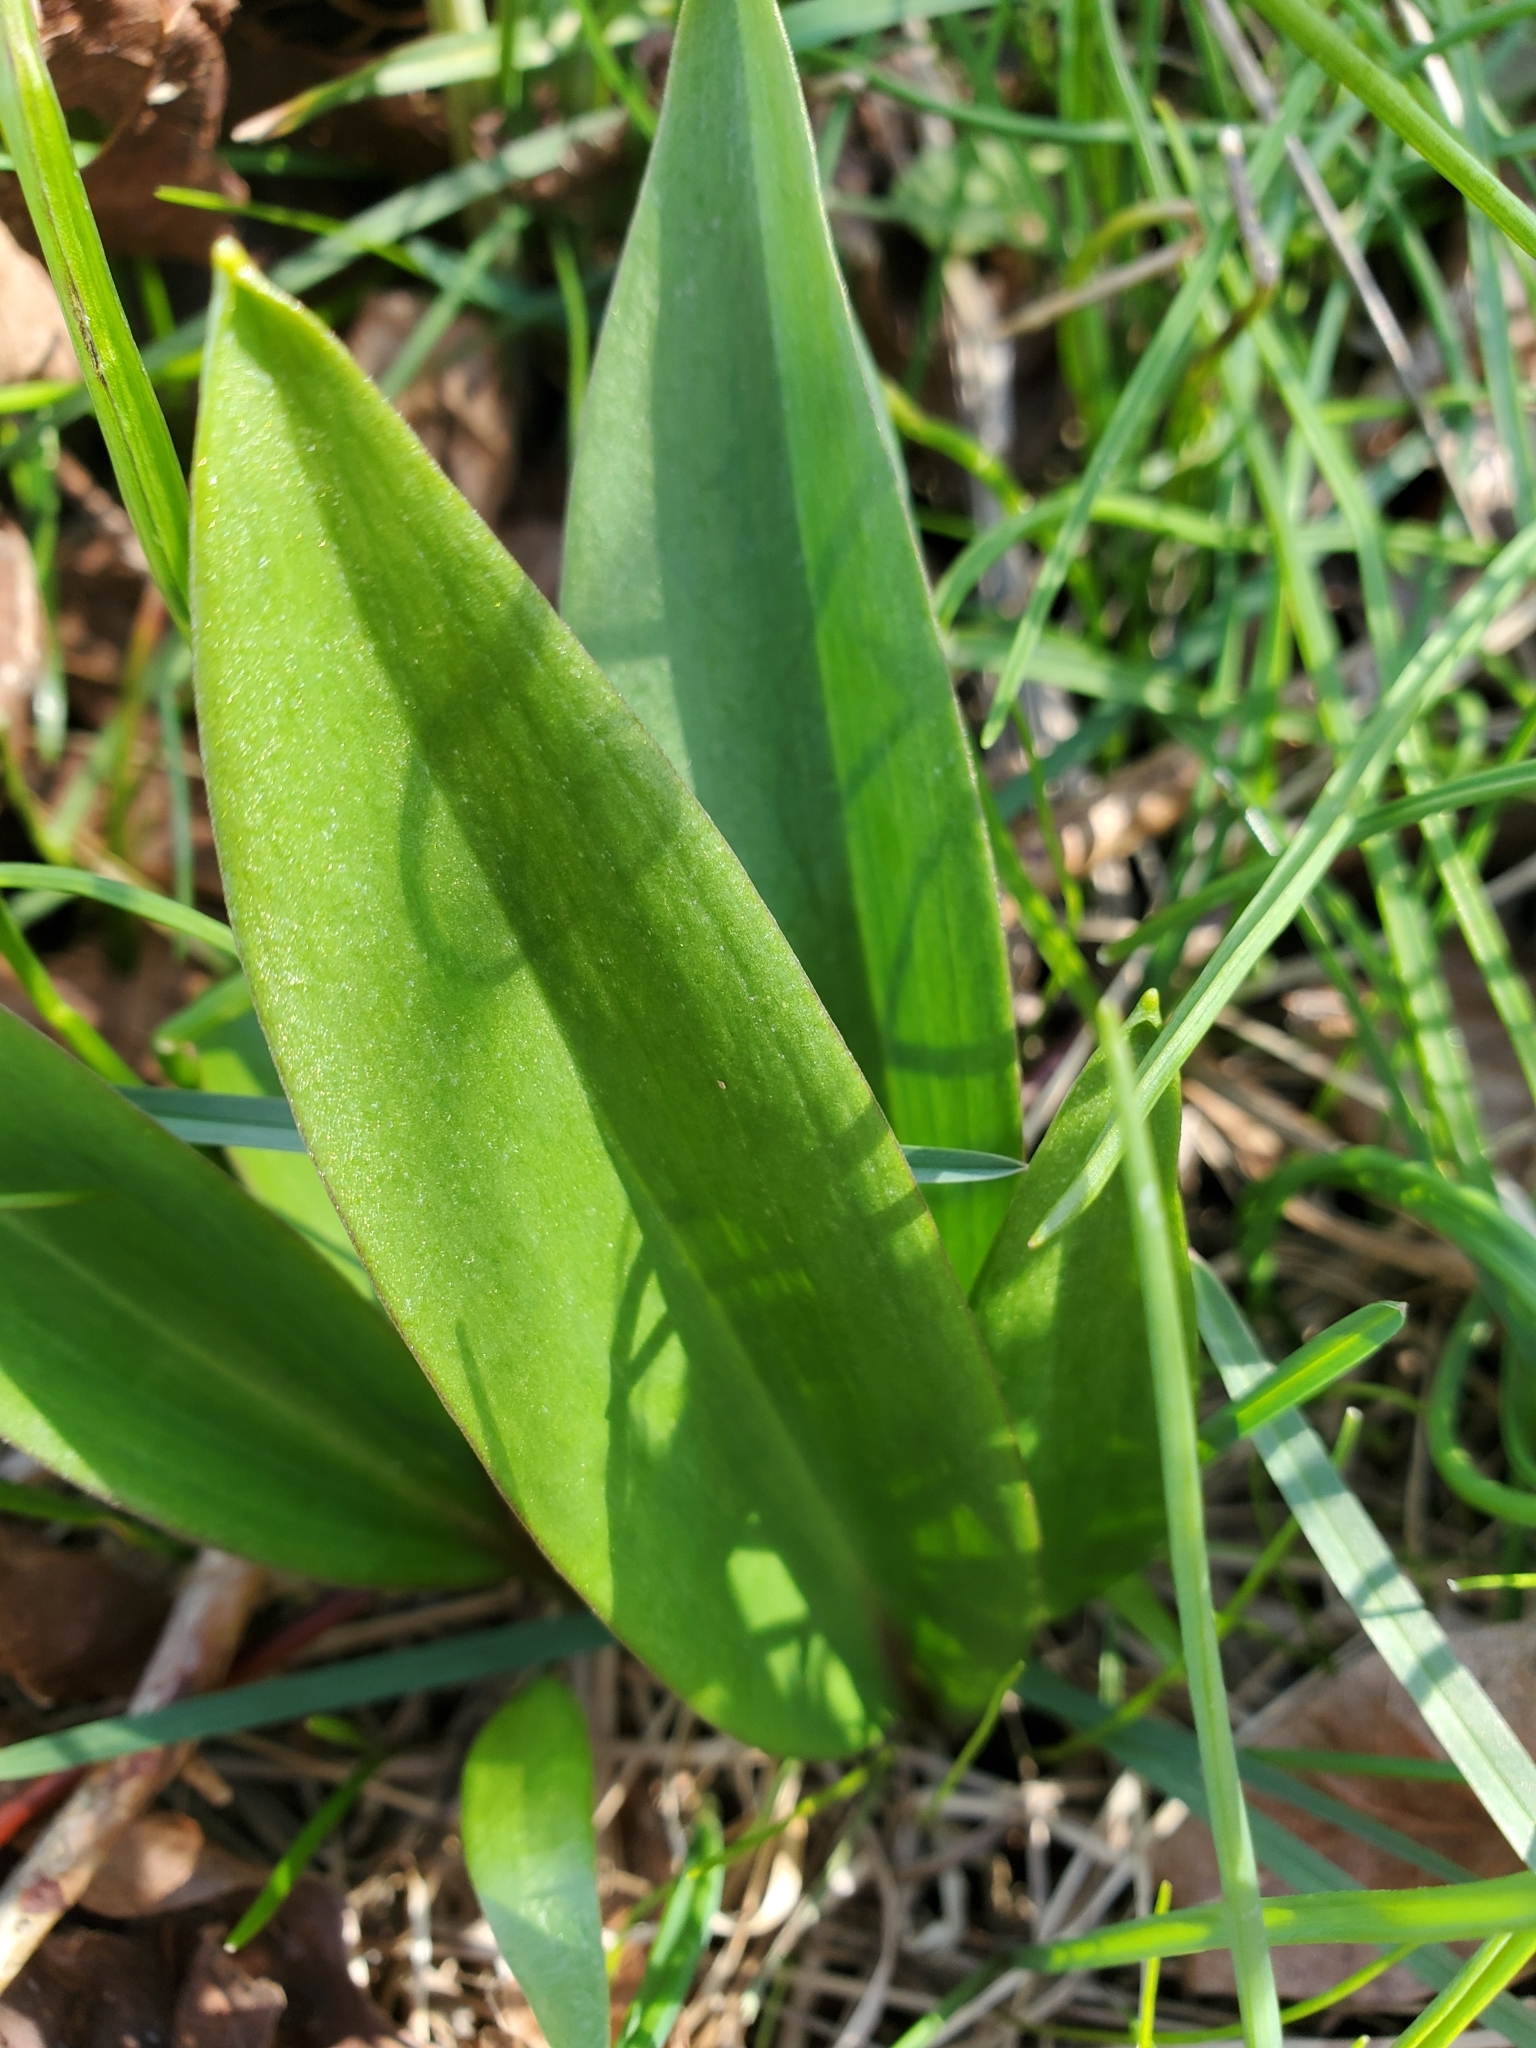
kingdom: Plantae
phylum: Tracheophyta
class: Liliopsida
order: Liliales
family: Liliaceae
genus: Fritillaria
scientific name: Fritillaria affinis
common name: Ojai fritillary
